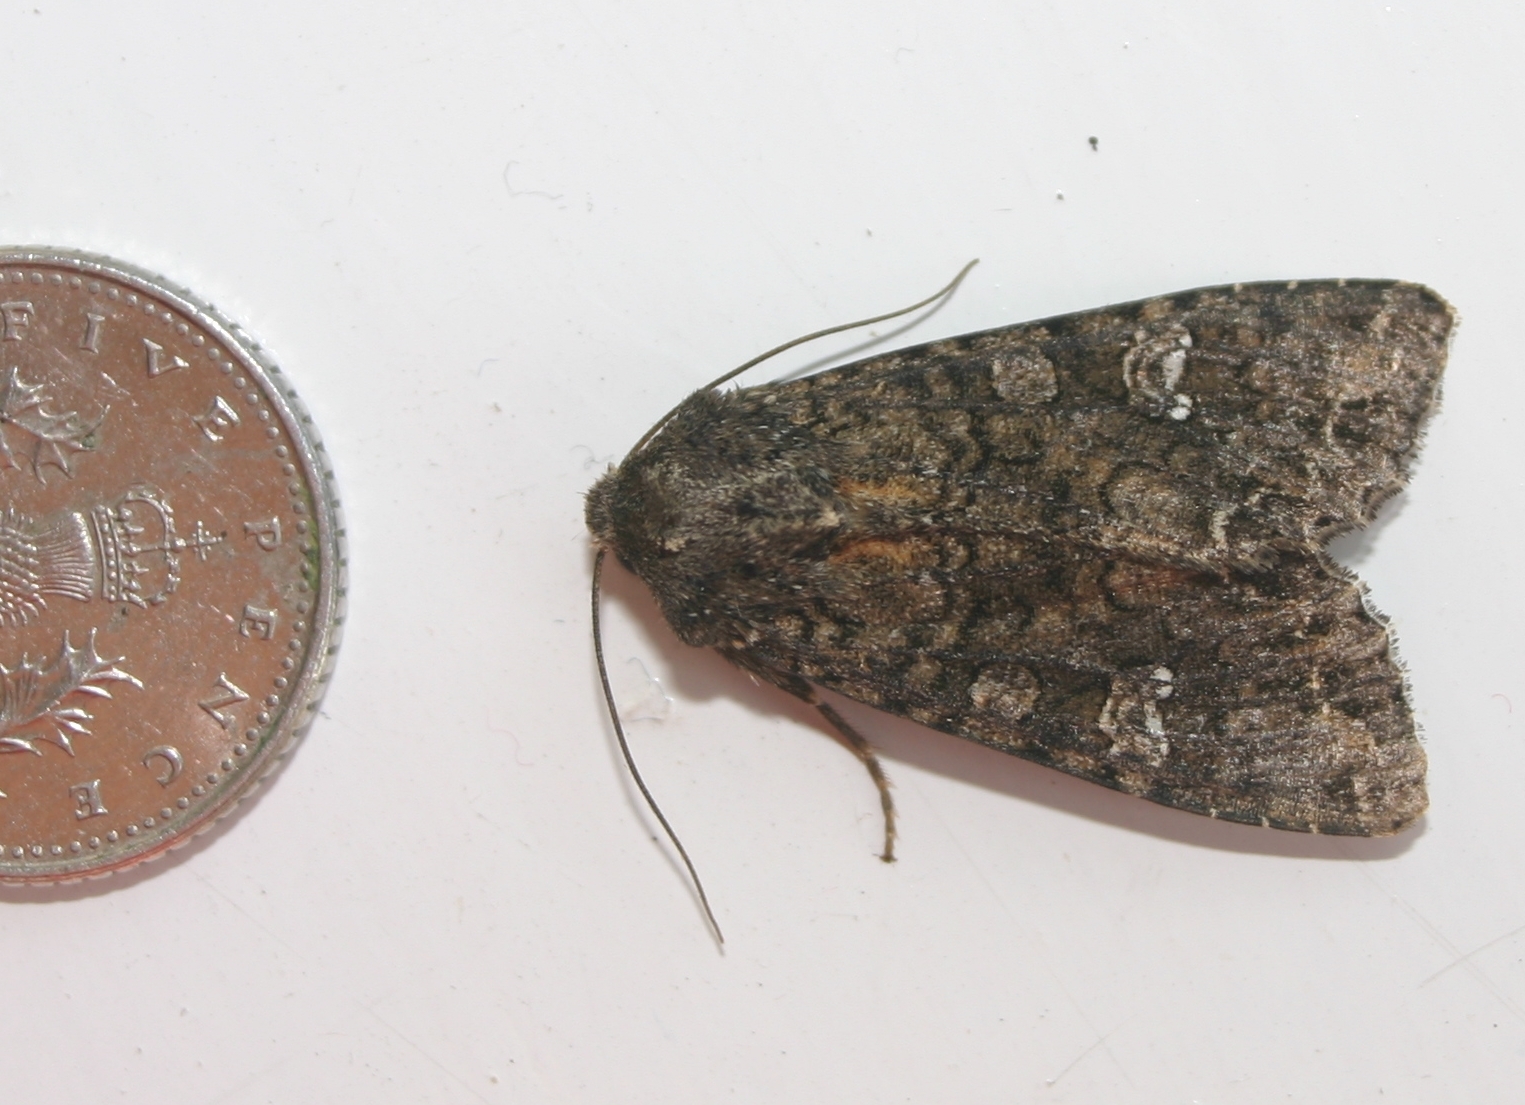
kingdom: Animalia
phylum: Arthropoda
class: Insecta
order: Lepidoptera
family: Noctuidae
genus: Mamestra
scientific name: Mamestra brassicae
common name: Cabbage moth
